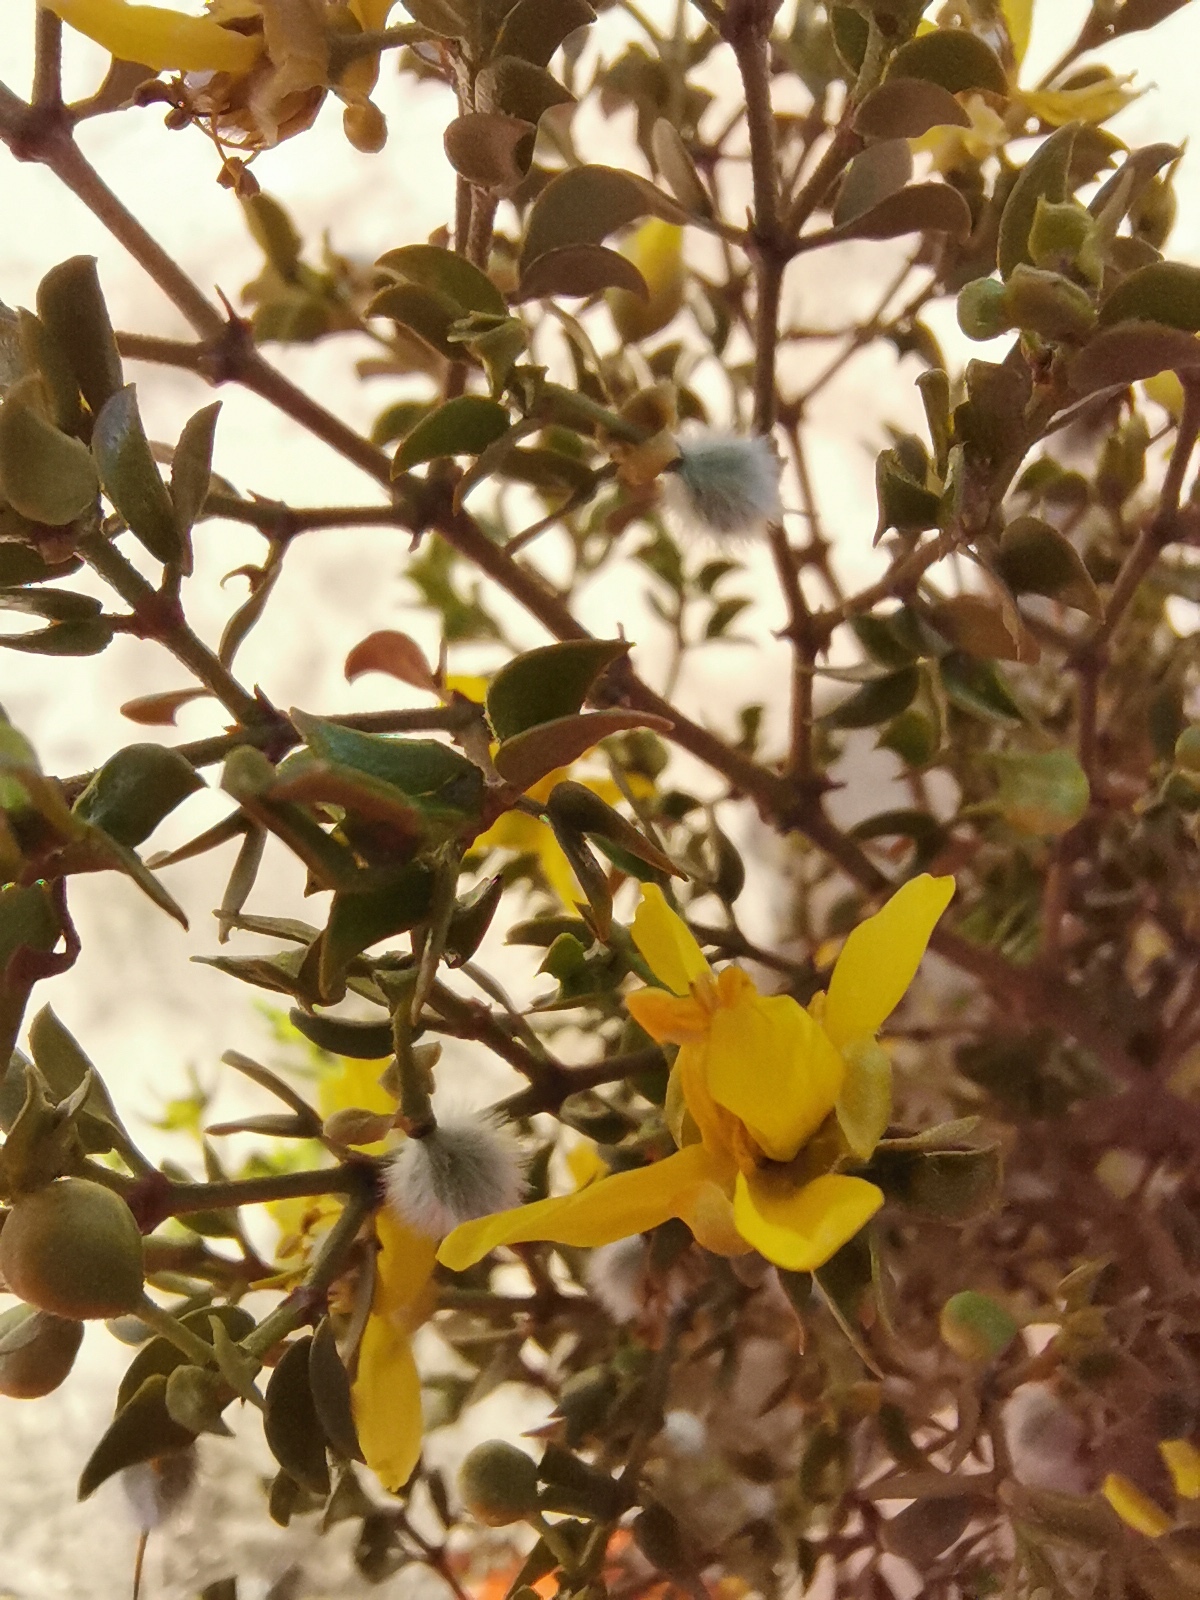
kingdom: Plantae
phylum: Tracheophyta
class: Magnoliopsida
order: Zygophyllales
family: Zygophyllaceae
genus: Larrea
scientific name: Larrea tridentata
